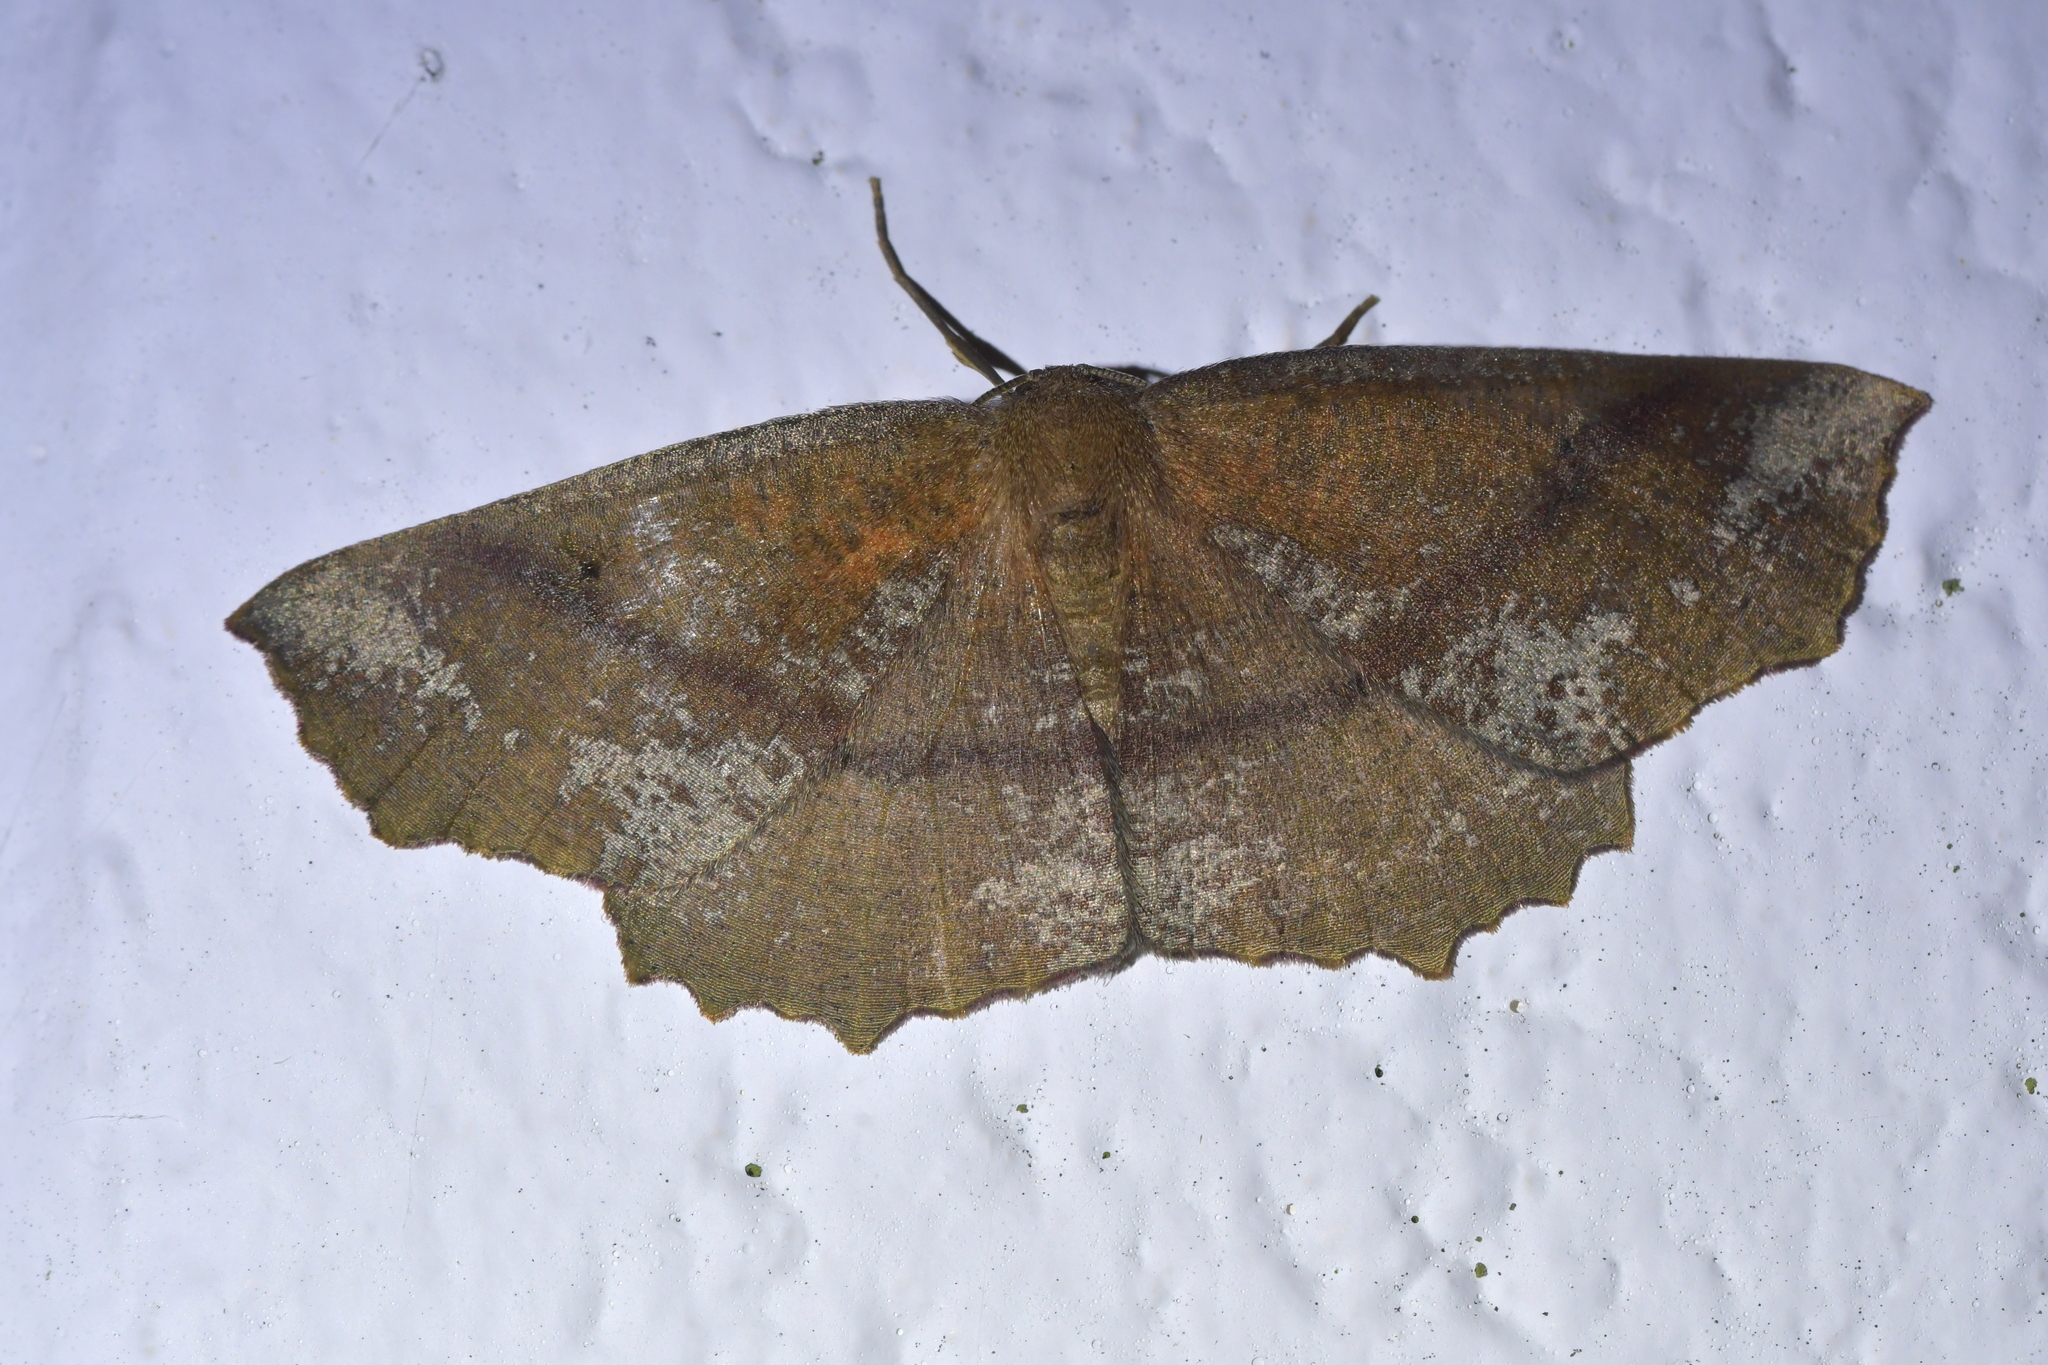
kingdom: Animalia
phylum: Arthropoda
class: Insecta
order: Lepidoptera
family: Geometridae
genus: Xyridacma
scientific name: Xyridacma ustaria
